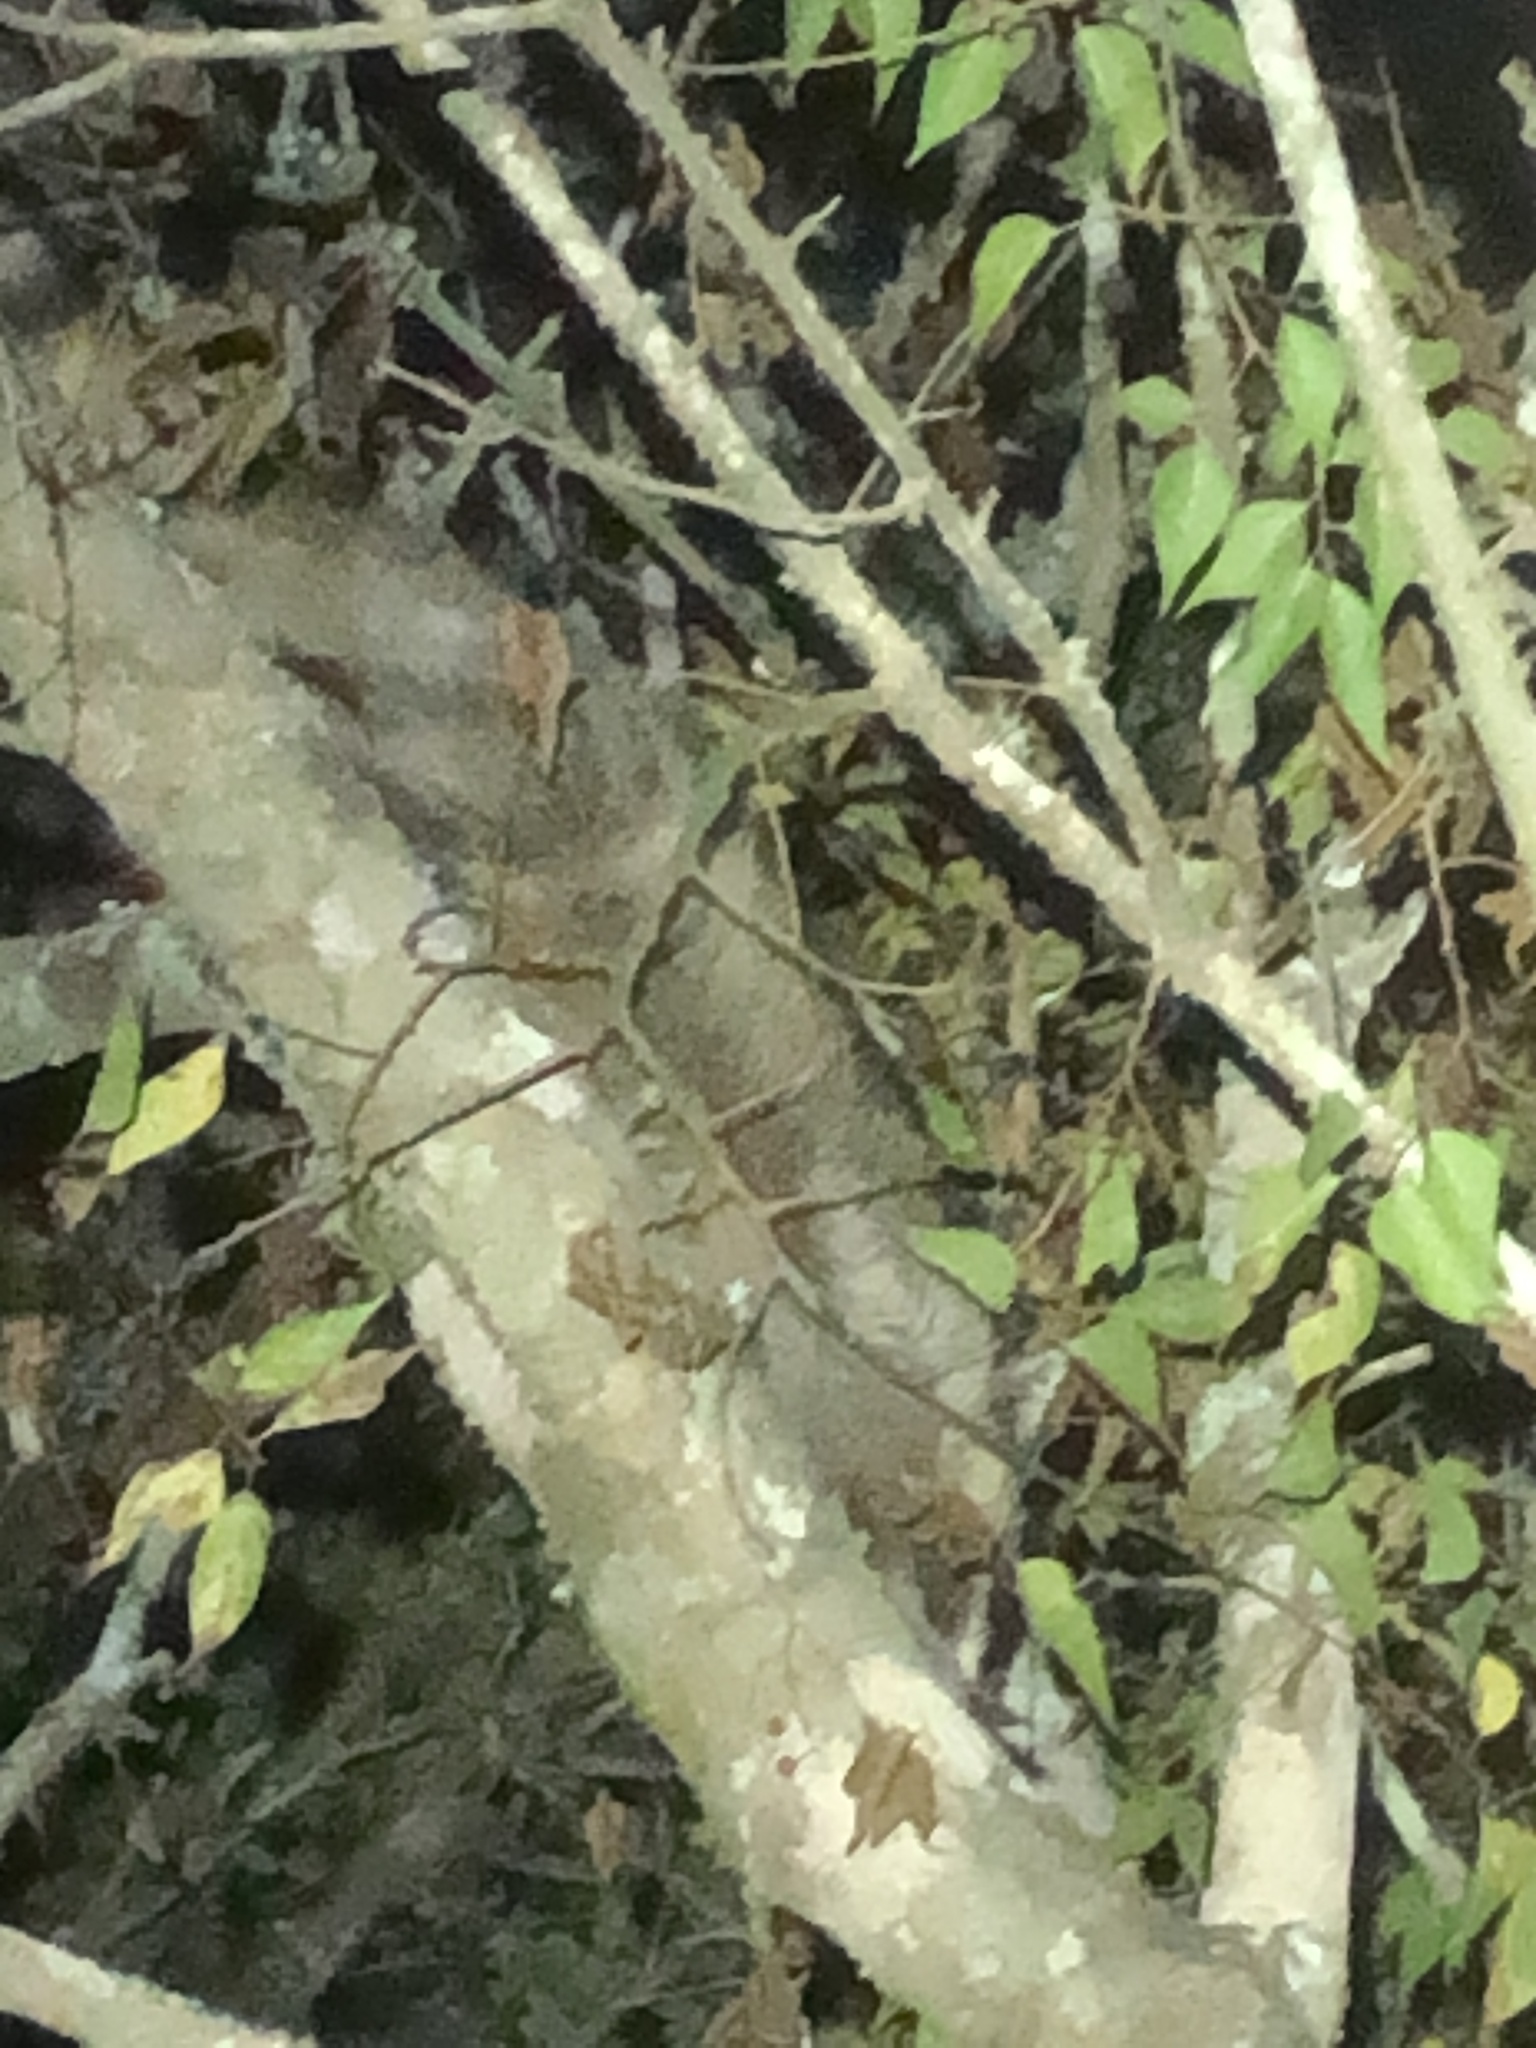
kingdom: Animalia
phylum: Chordata
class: Mammalia
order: Carnivora
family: Procyonidae
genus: Procyon
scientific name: Procyon lotor
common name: Raccoon
